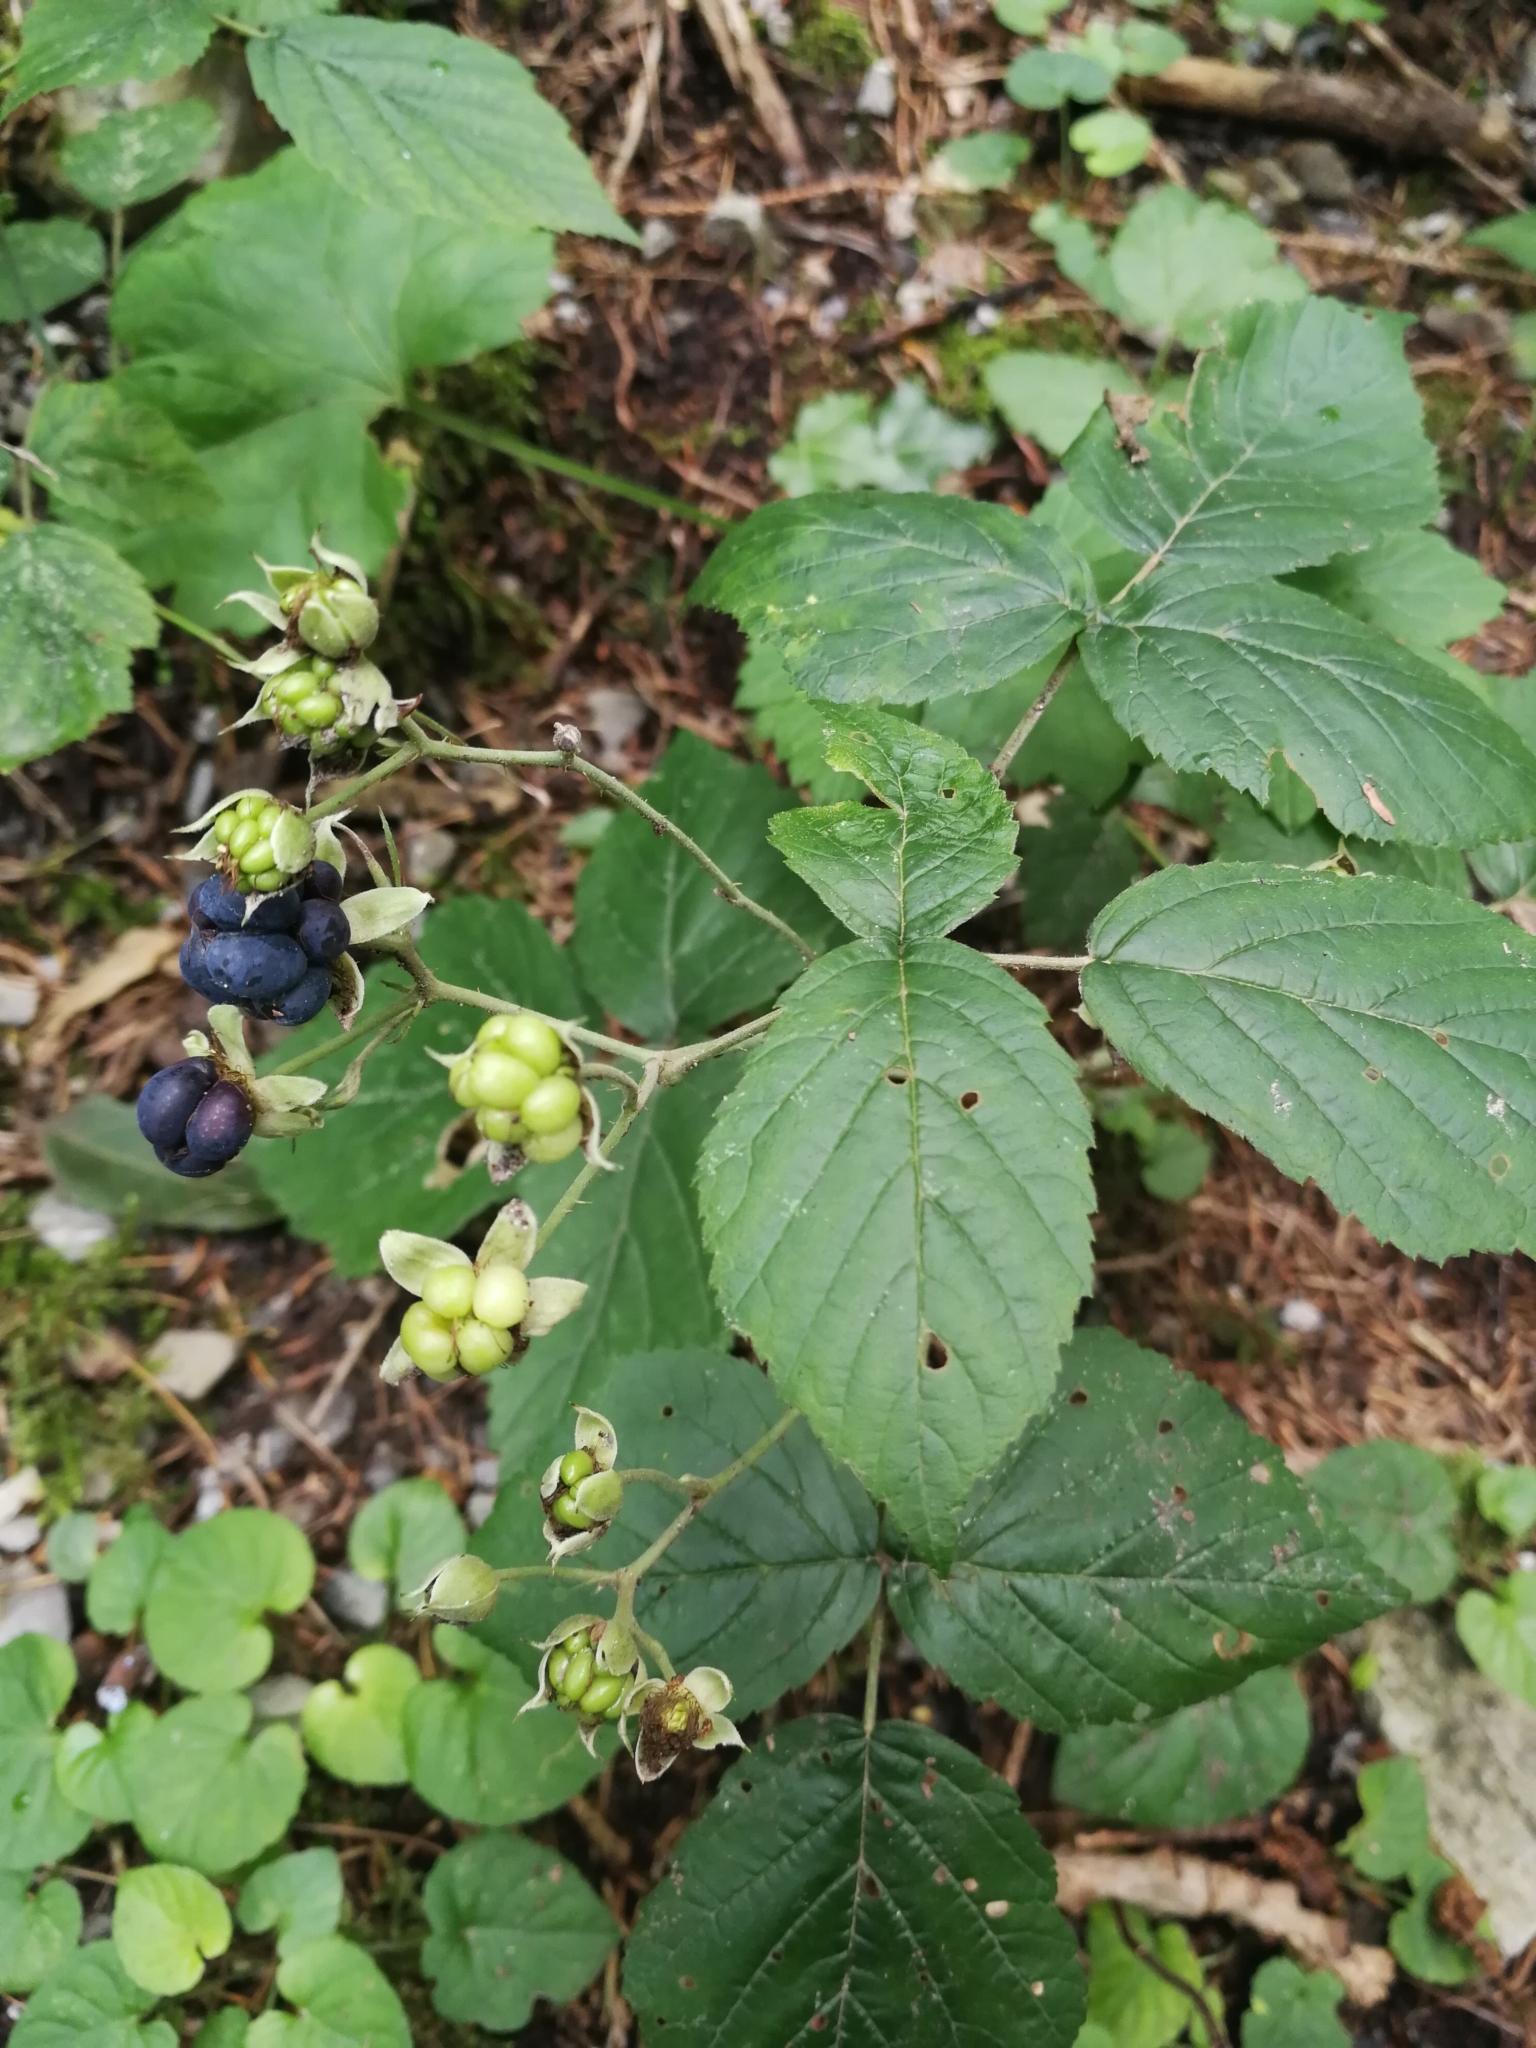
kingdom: Plantae
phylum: Tracheophyta
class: Magnoliopsida
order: Rosales
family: Rosaceae
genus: Rubus
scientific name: Rubus caesius
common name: Dewberry
